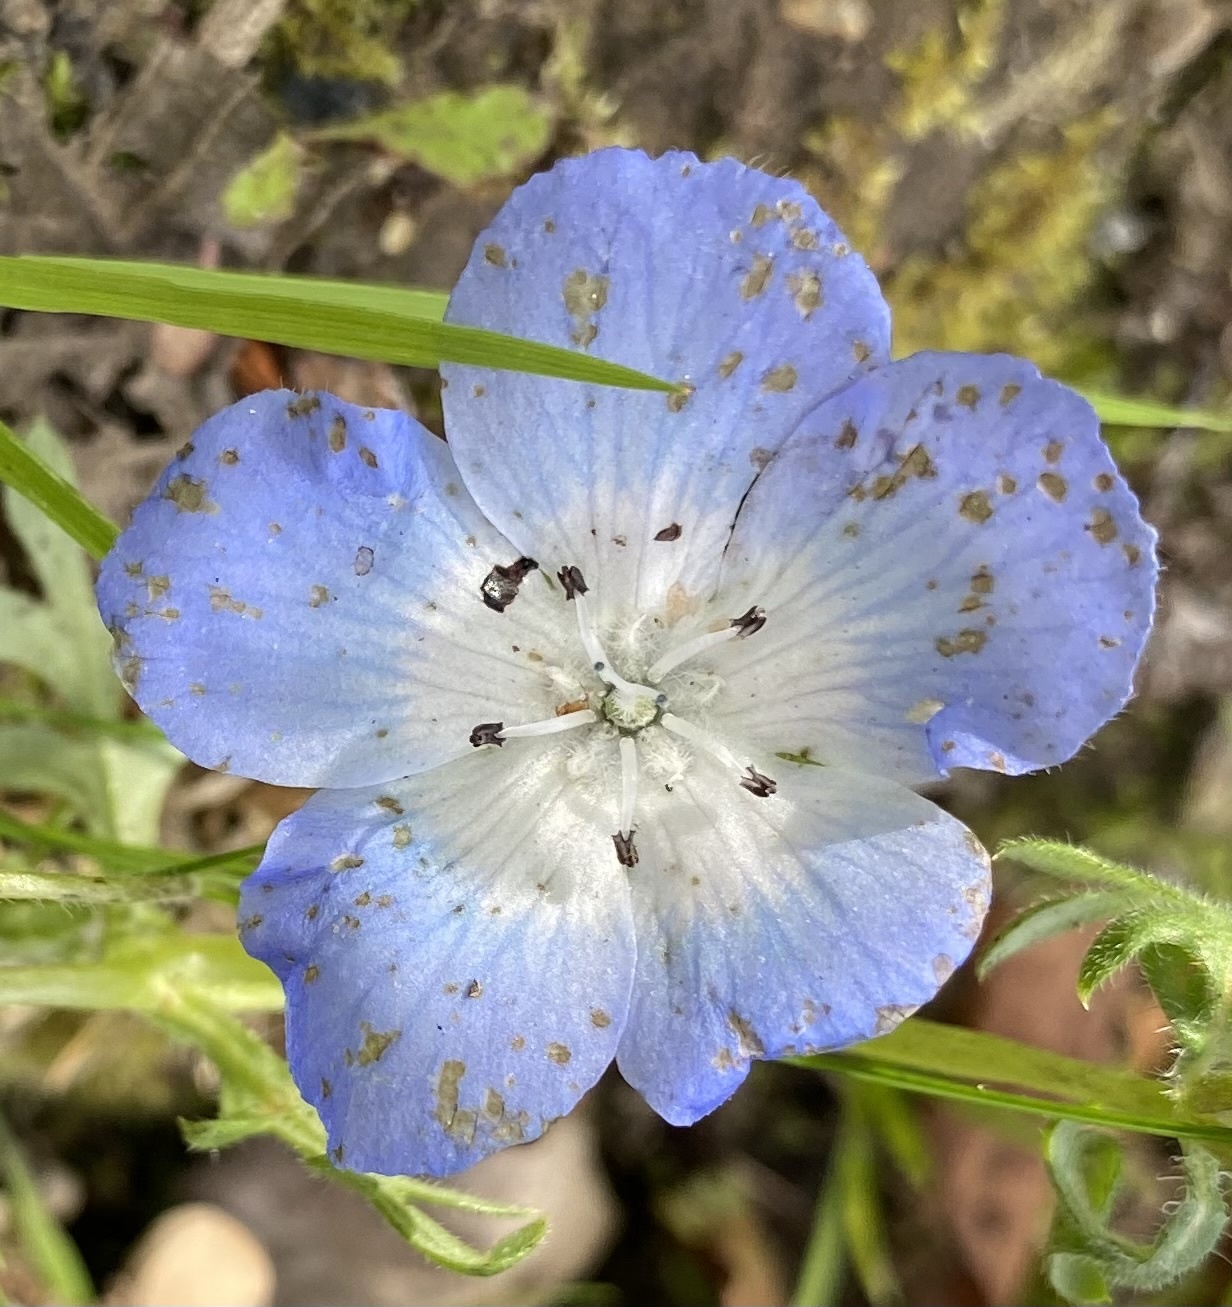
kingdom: Plantae
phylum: Tracheophyta
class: Magnoliopsida
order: Boraginales
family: Hydrophyllaceae
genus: Nemophila
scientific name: Nemophila menziesii
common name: Baby's-blue-eyes
